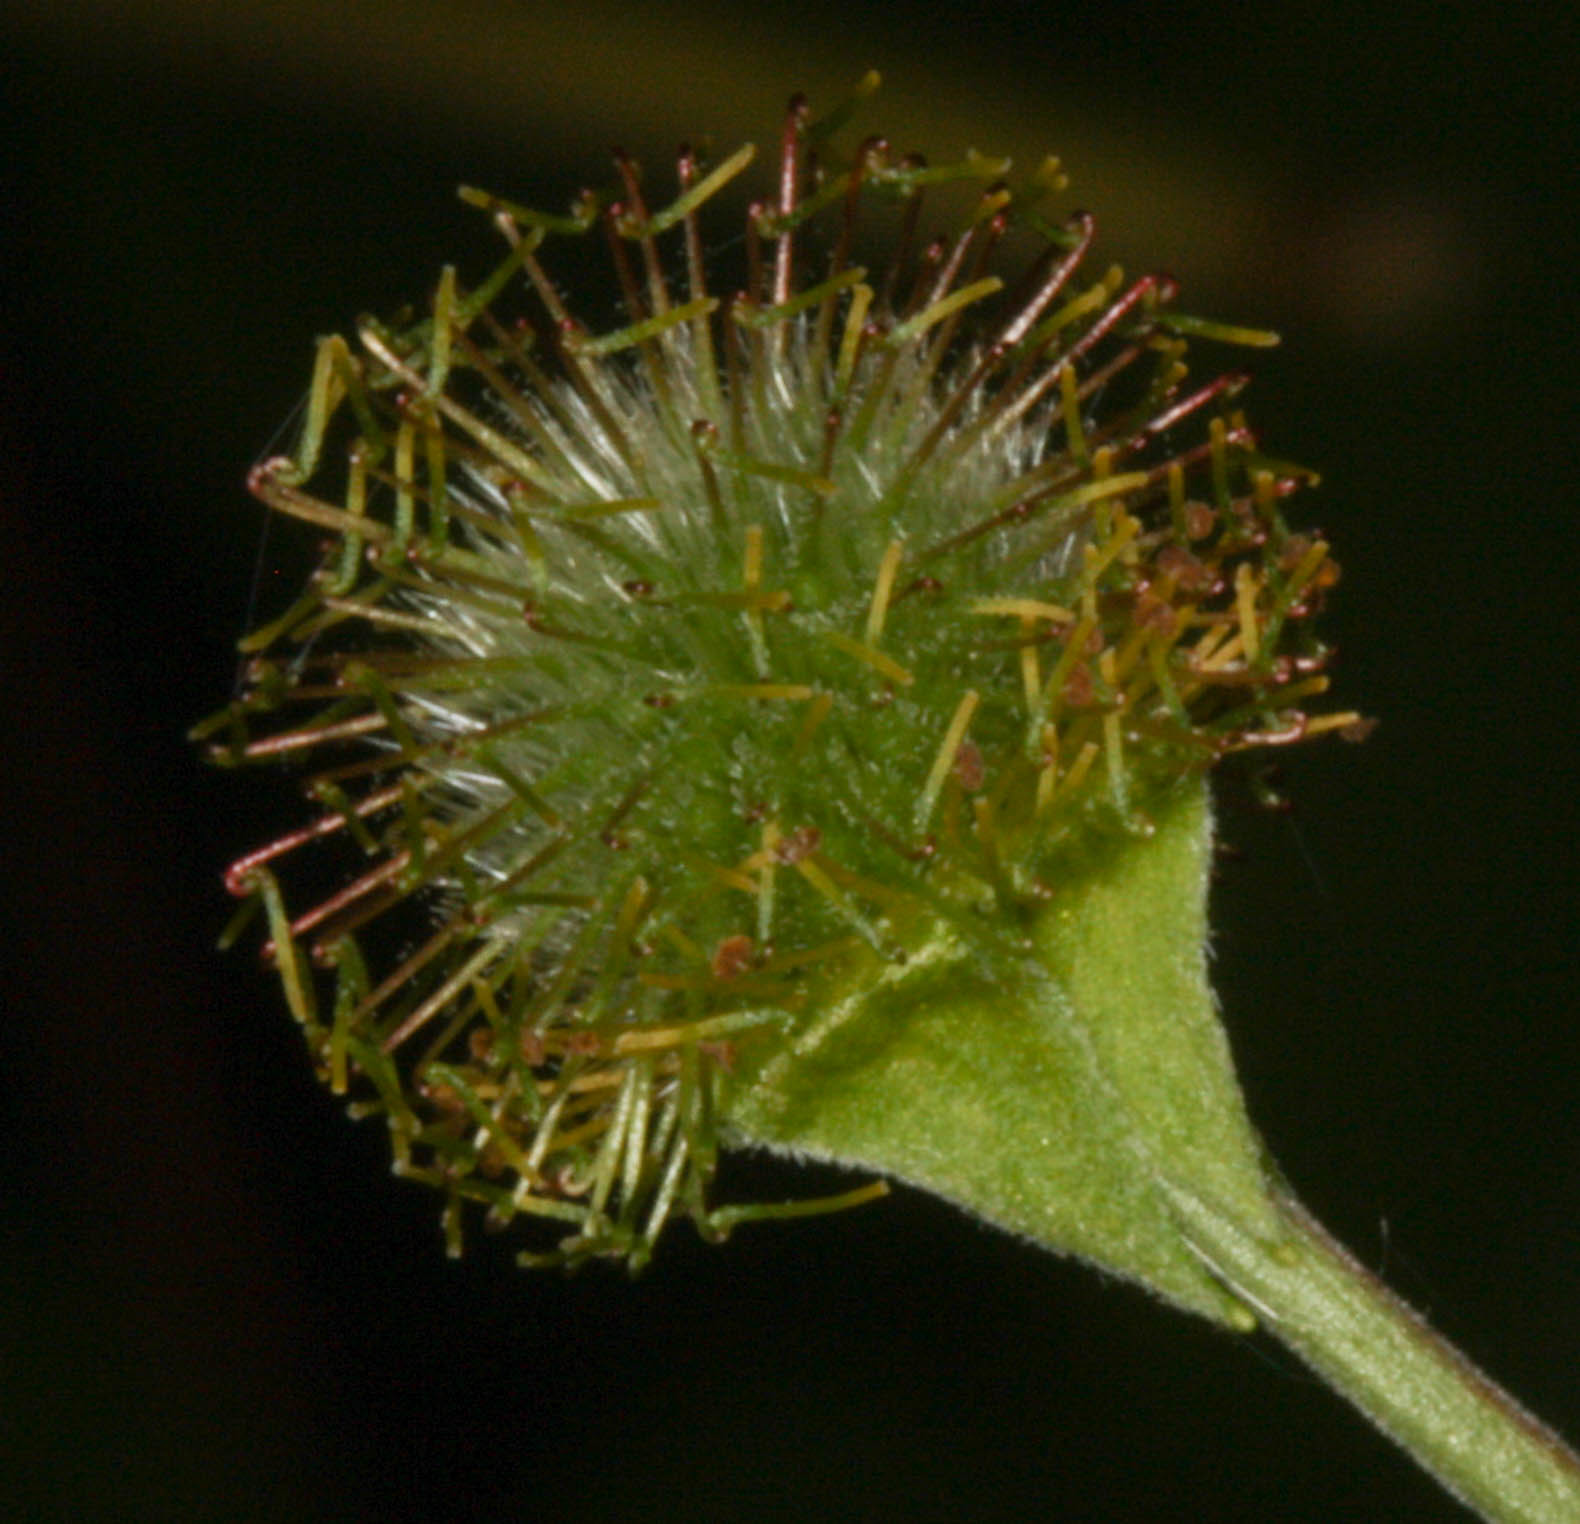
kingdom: Plantae
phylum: Tracheophyta
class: Magnoliopsida
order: Rosales
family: Rosaceae
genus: Geum
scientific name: Geum macrophyllum
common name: Large-leaved avens
